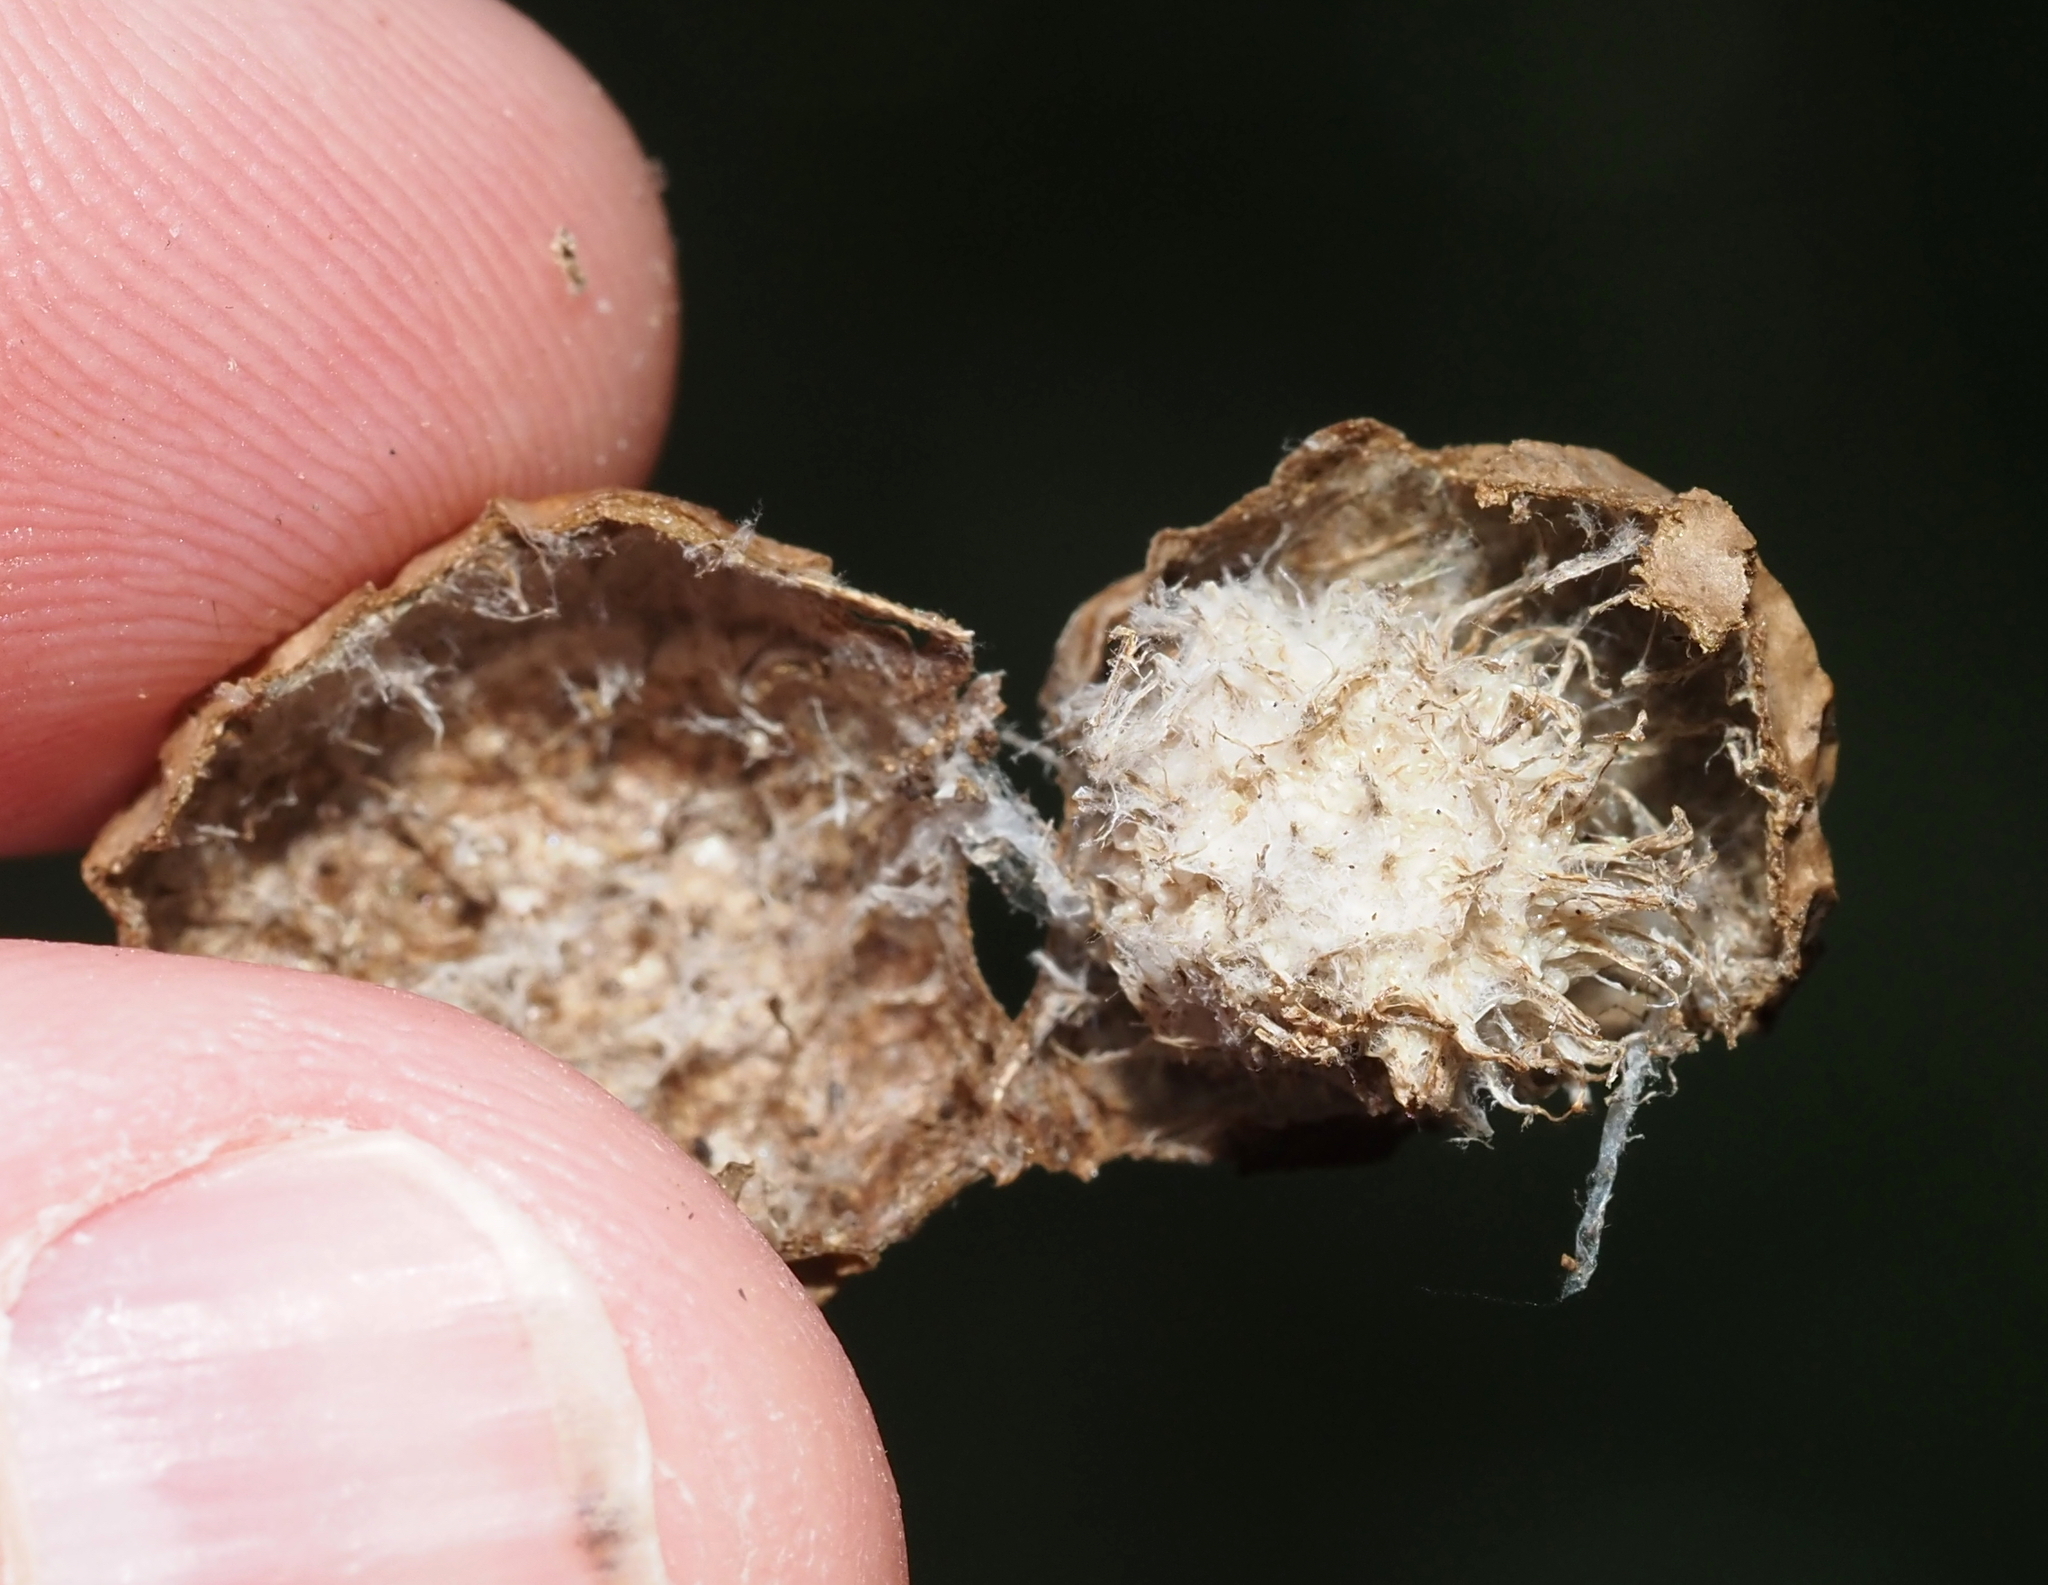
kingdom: Animalia
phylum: Arthropoda
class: Insecta
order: Hymenoptera
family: Cynipidae
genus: Amphibolips
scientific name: Amphibolips
